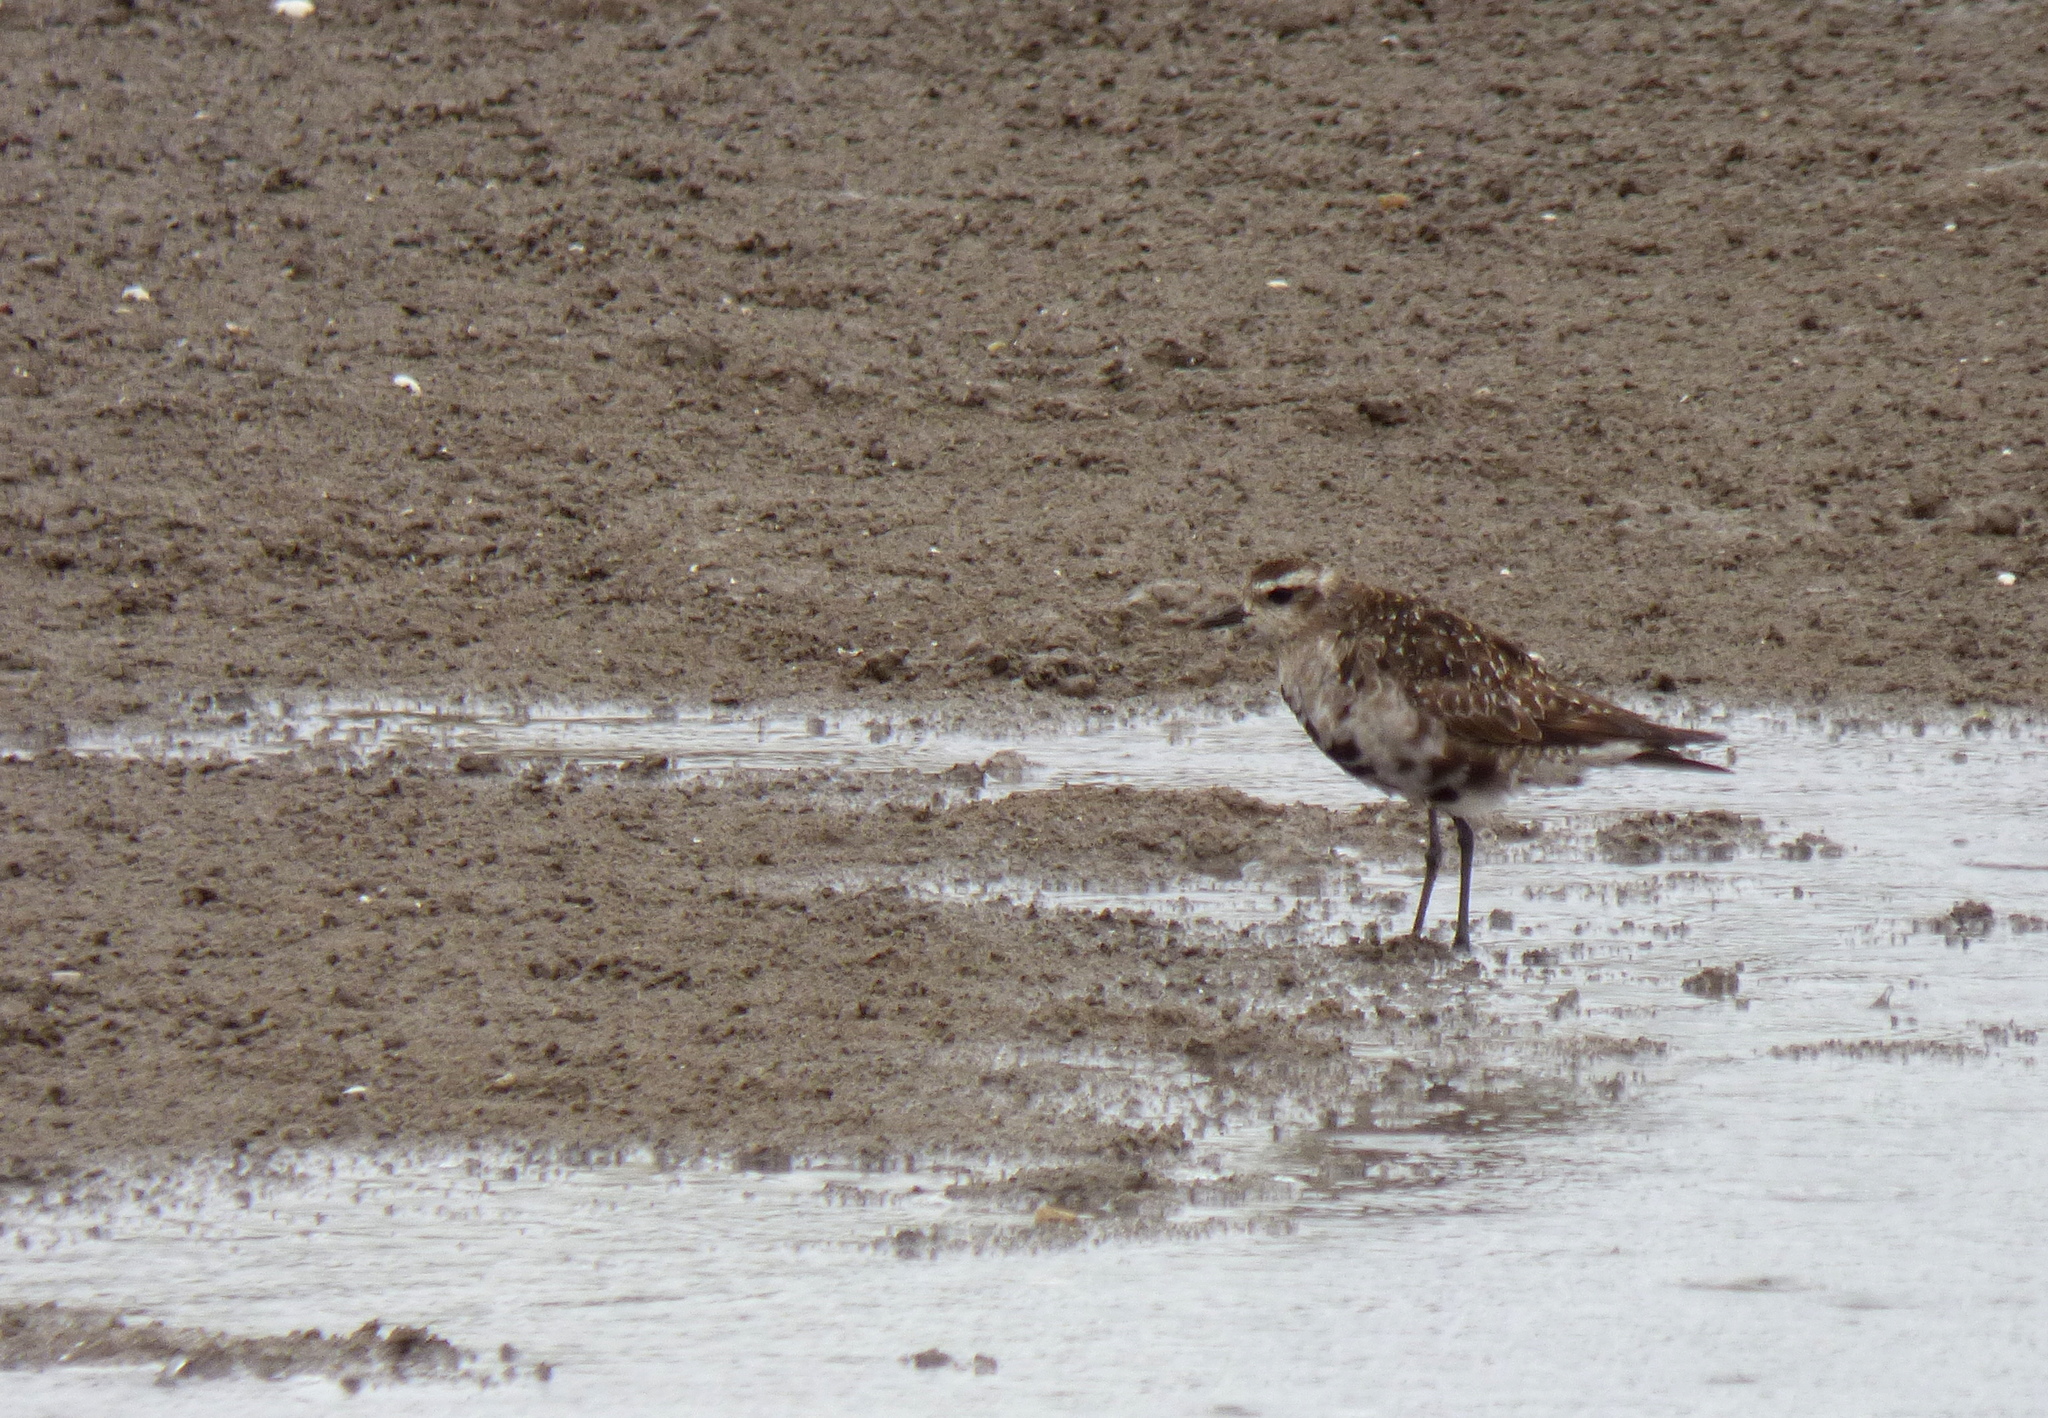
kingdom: Animalia
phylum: Chordata
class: Aves
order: Charadriiformes
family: Charadriidae
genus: Pluvialis
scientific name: Pluvialis dominica
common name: American golden plover
